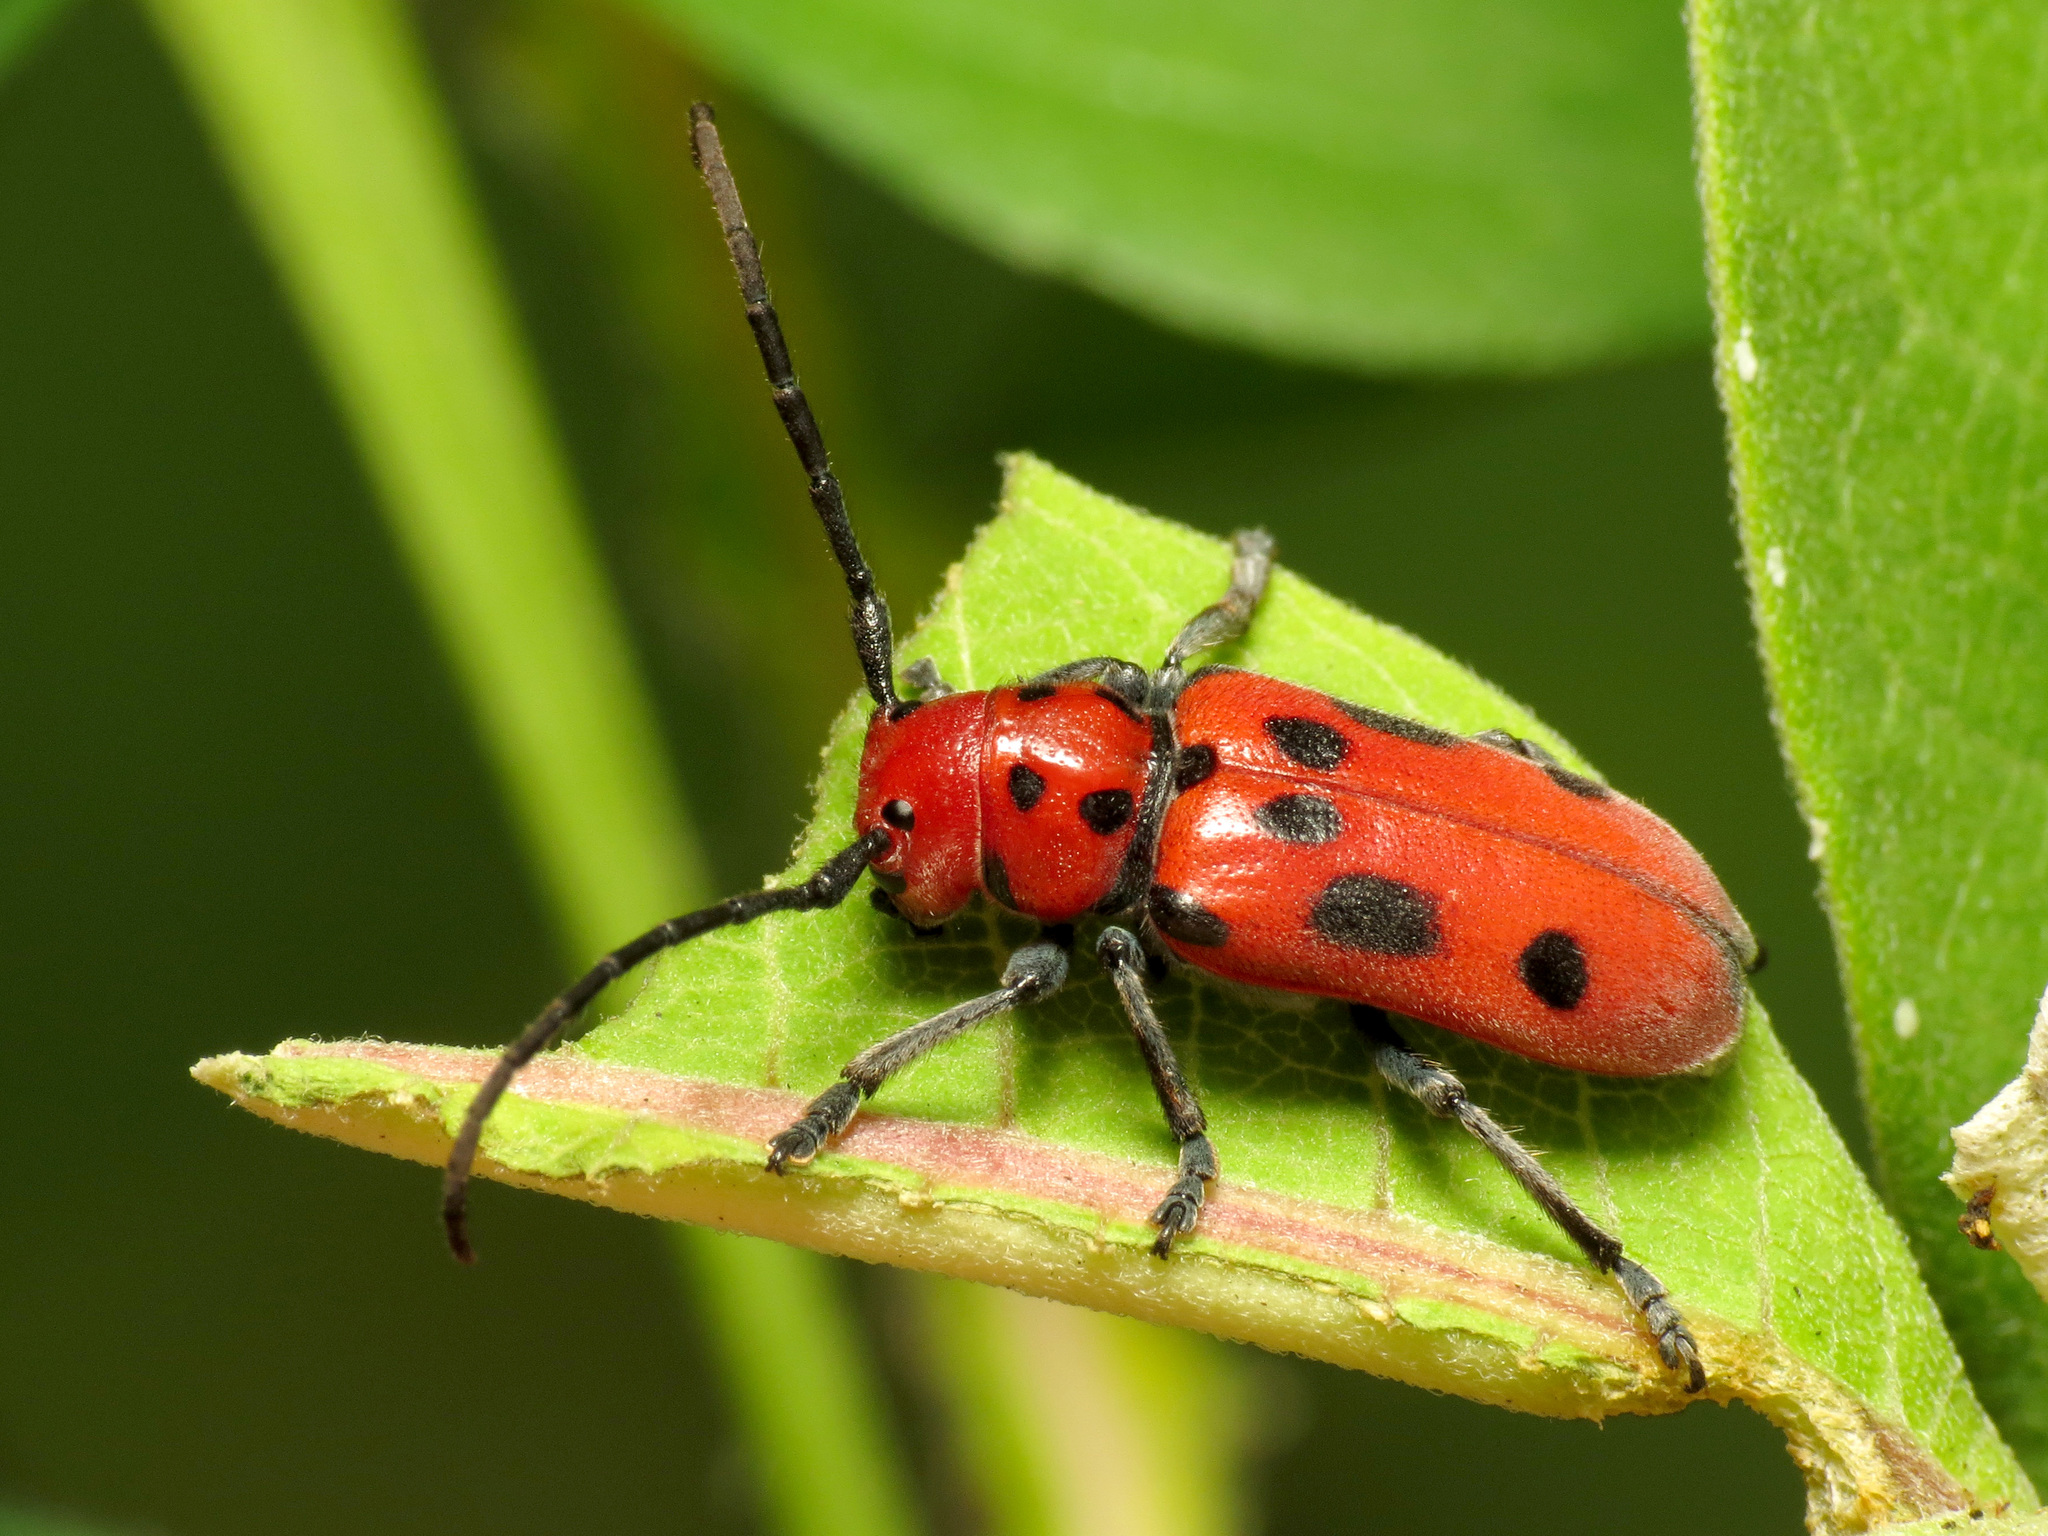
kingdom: Animalia
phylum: Arthropoda
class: Insecta
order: Coleoptera
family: Cerambycidae
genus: Tetraopes
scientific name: Tetraopes tetrophthalmus
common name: Red milkweed beetle
